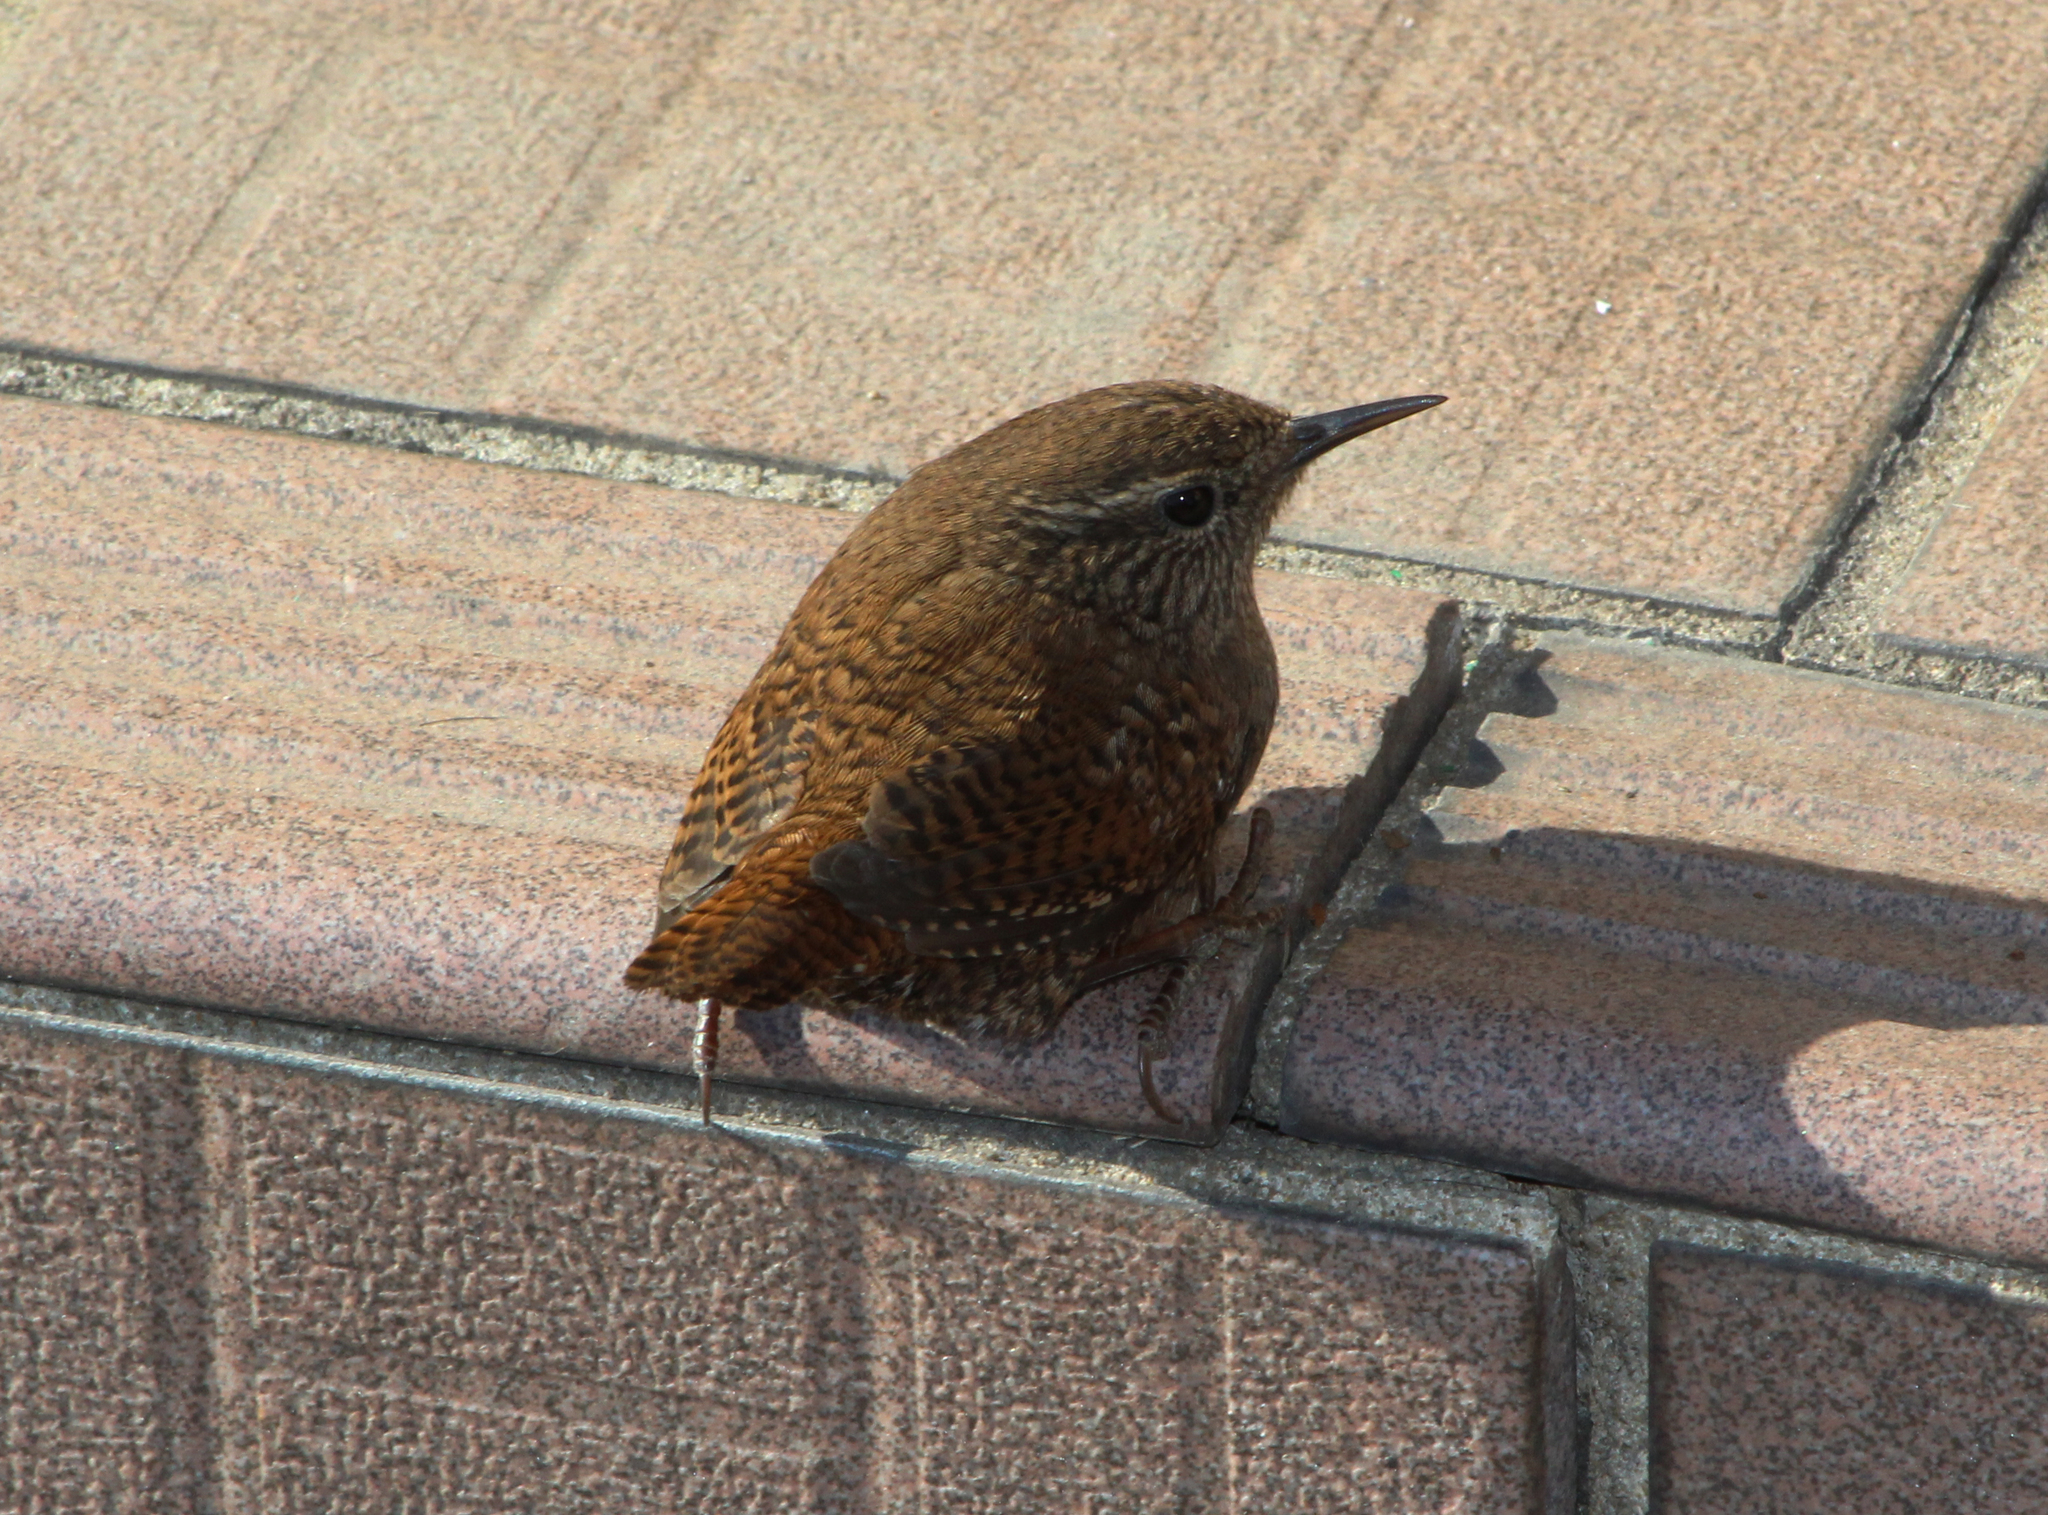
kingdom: Animalia
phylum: Chordata
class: Aves
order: Passeriformes
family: Troglodytidae
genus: Troglodytes
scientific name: Troglodytes troglodytes
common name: Eurasian wren
